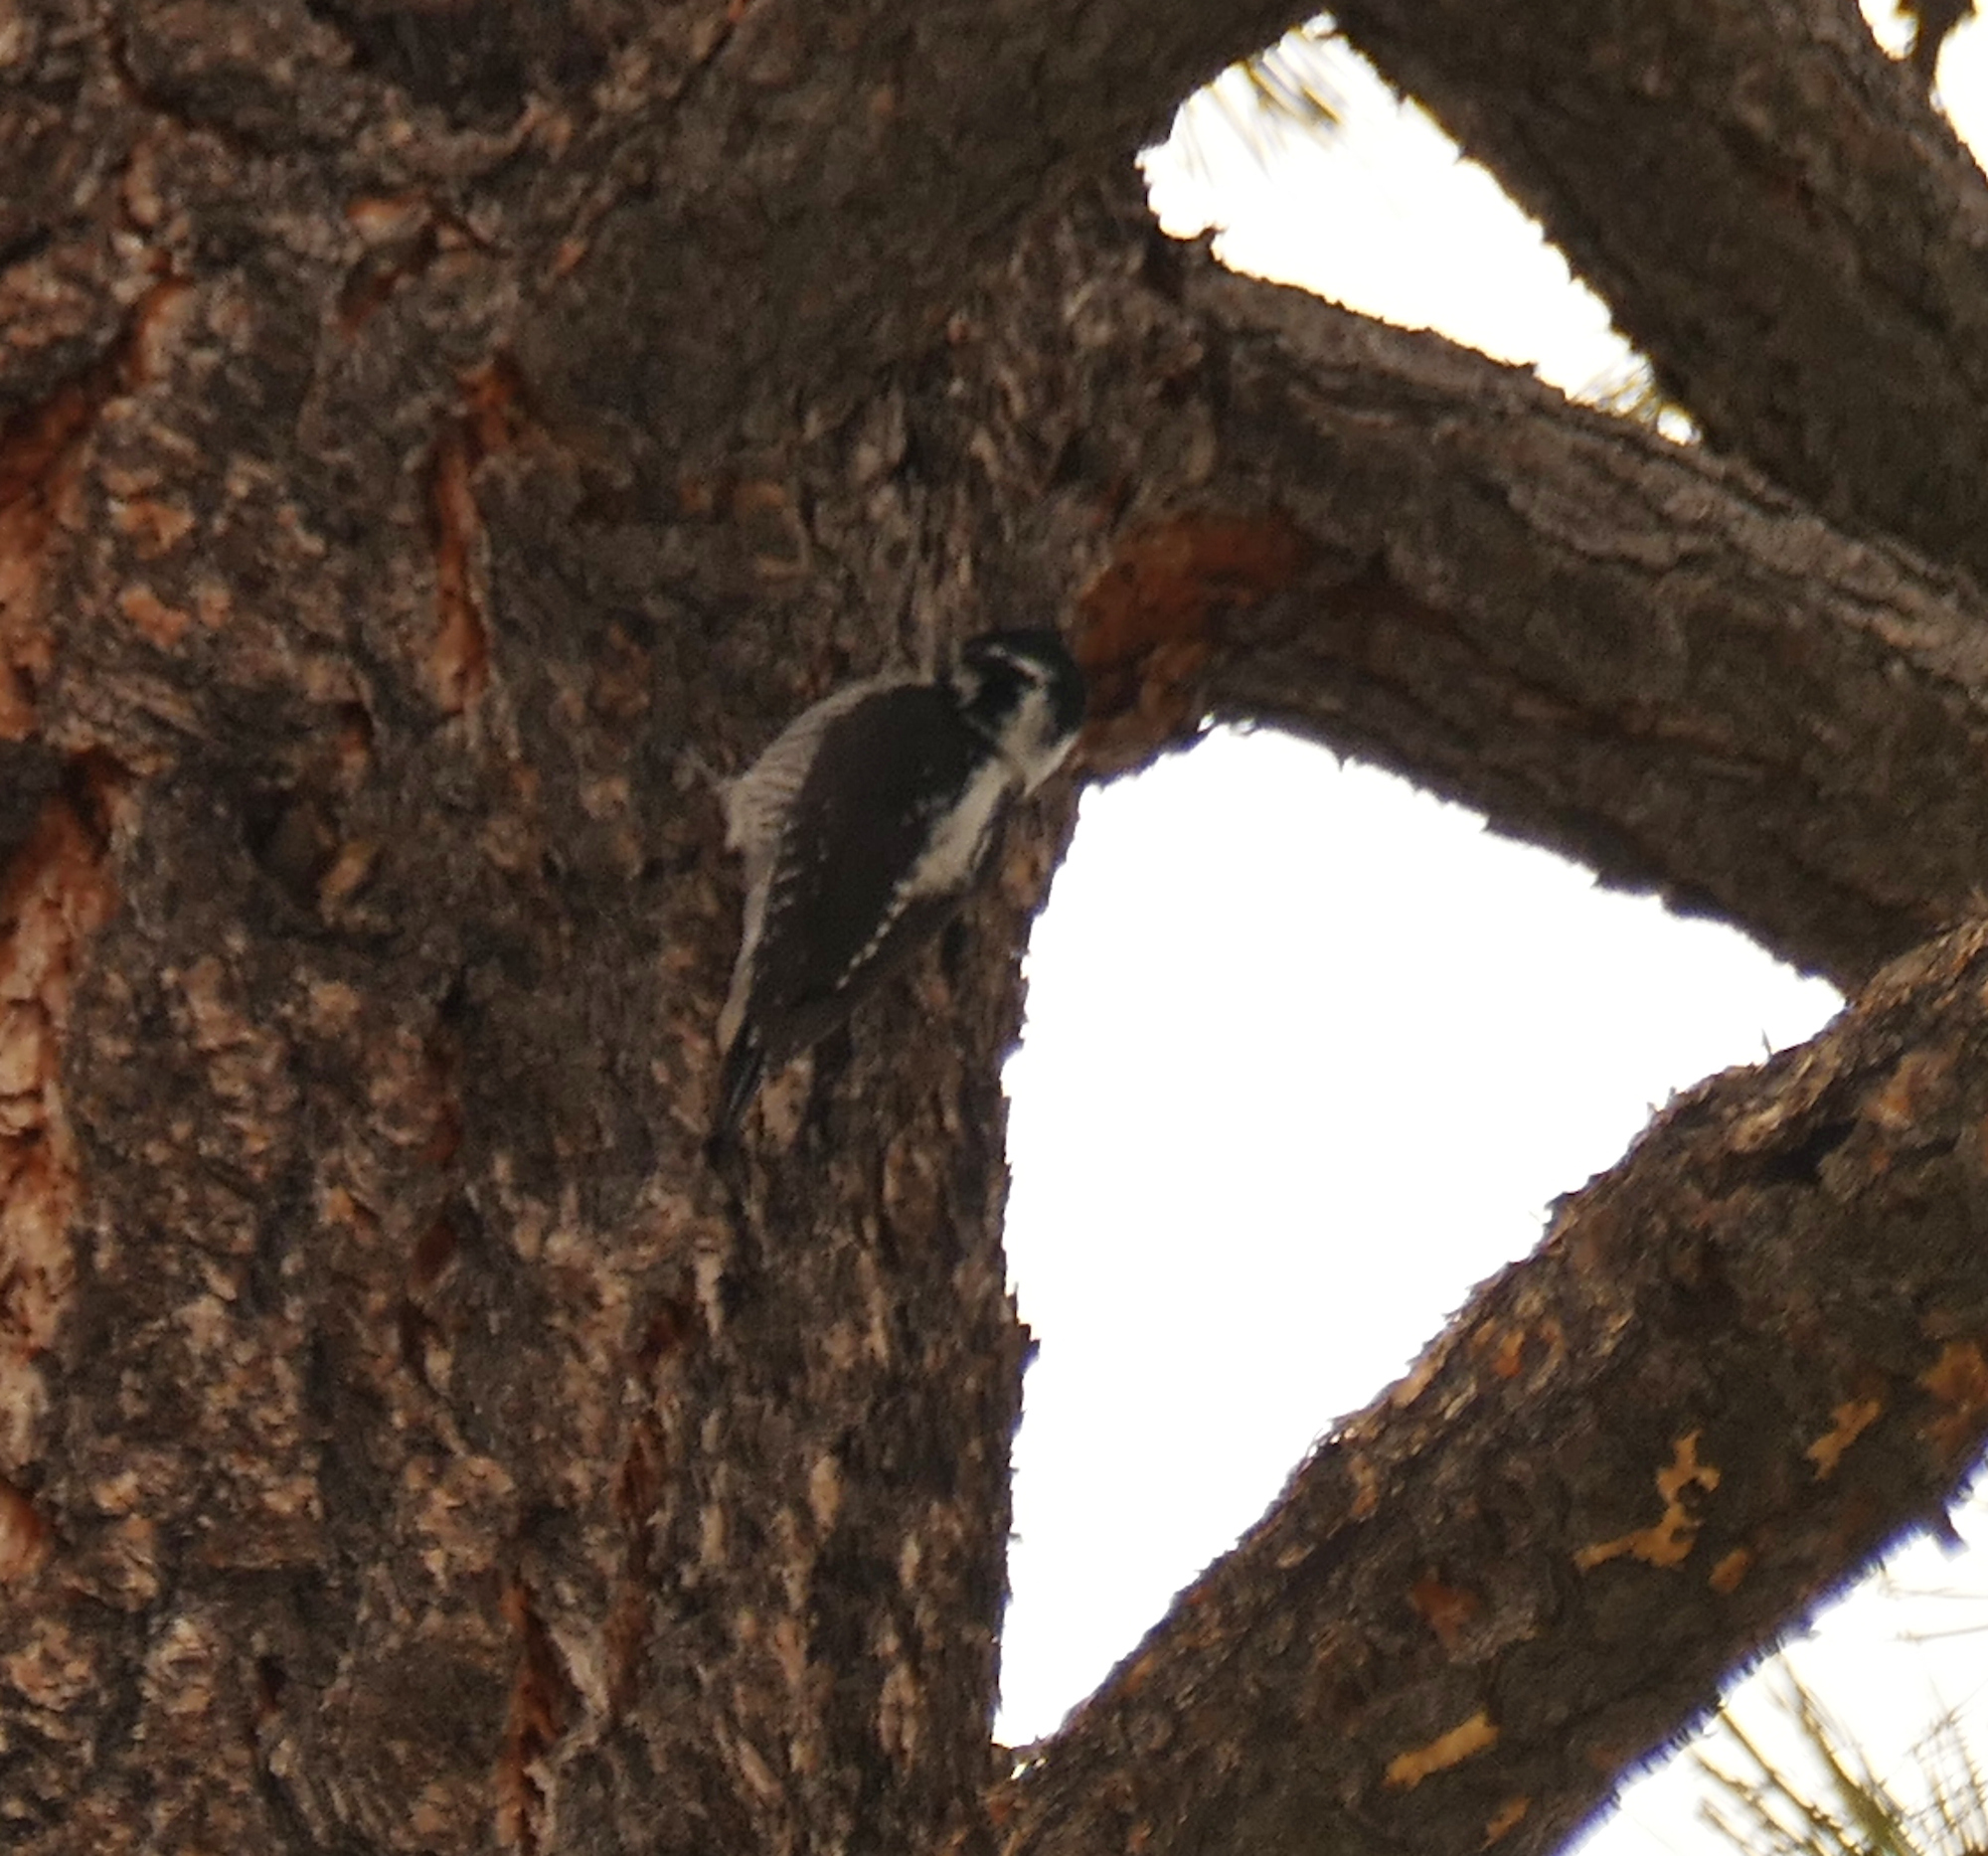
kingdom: Animalia
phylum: Chordata
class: Aves
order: Piciformes
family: Picidae
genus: Picoides
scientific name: Picoides dorsalis
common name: American three-toed woodpecker
